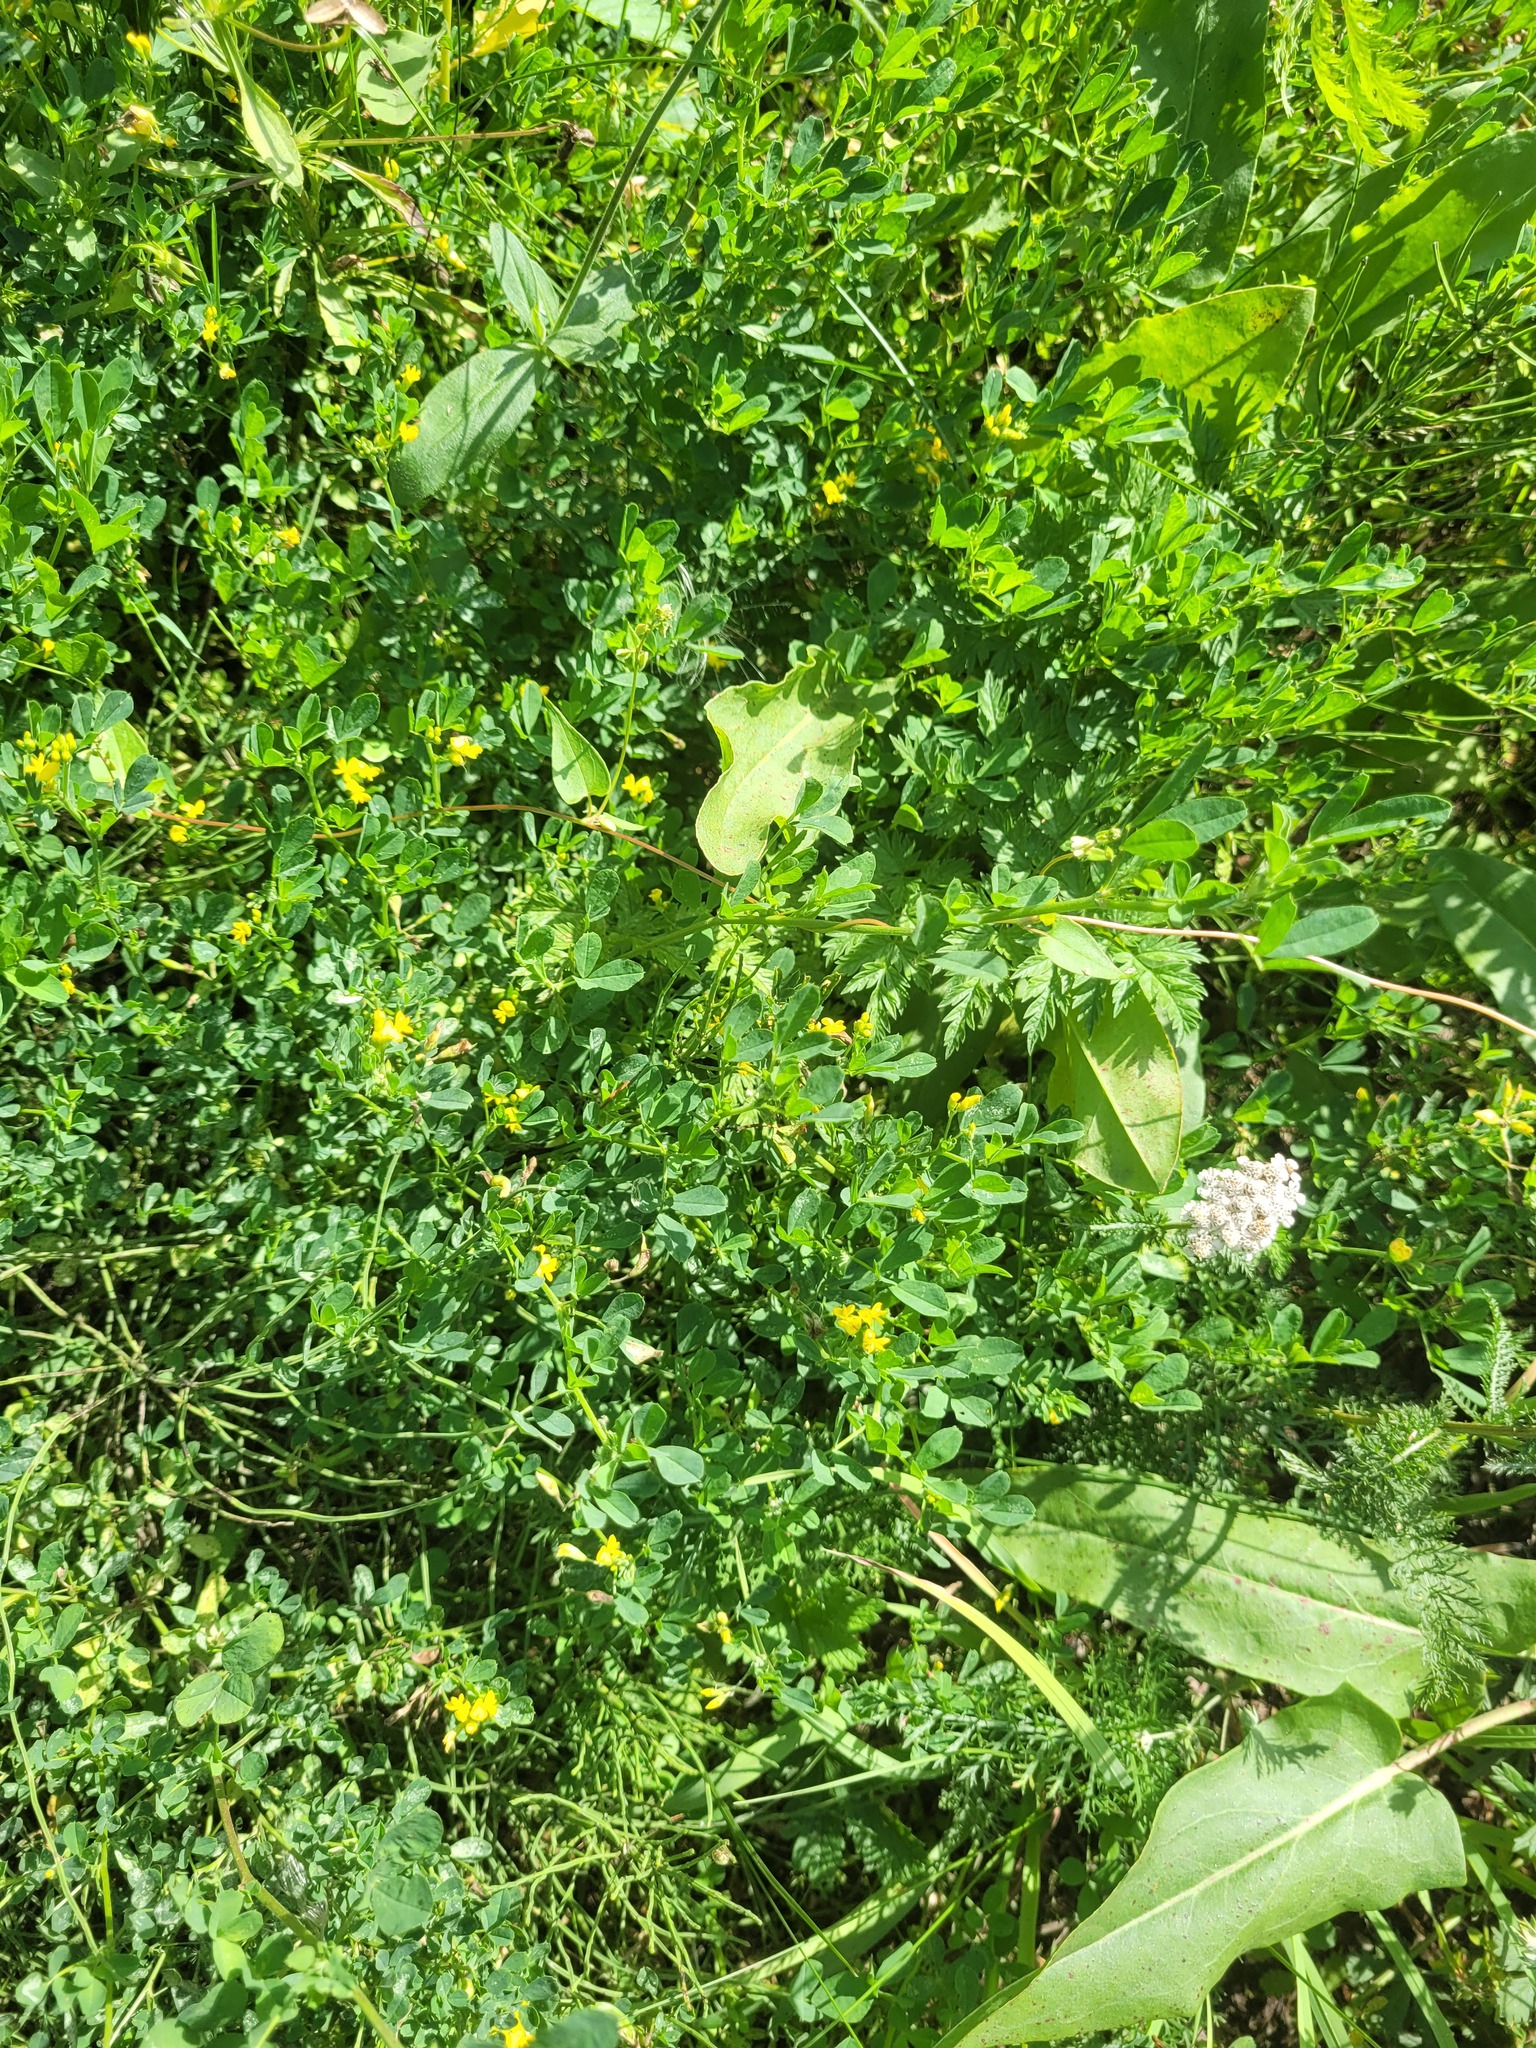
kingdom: Plantae
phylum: Tracheophyta
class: Magnoliopsida
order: Fabales
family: Fabaceae
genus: Medicago
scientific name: Medicago falcata
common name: Sickle medick
